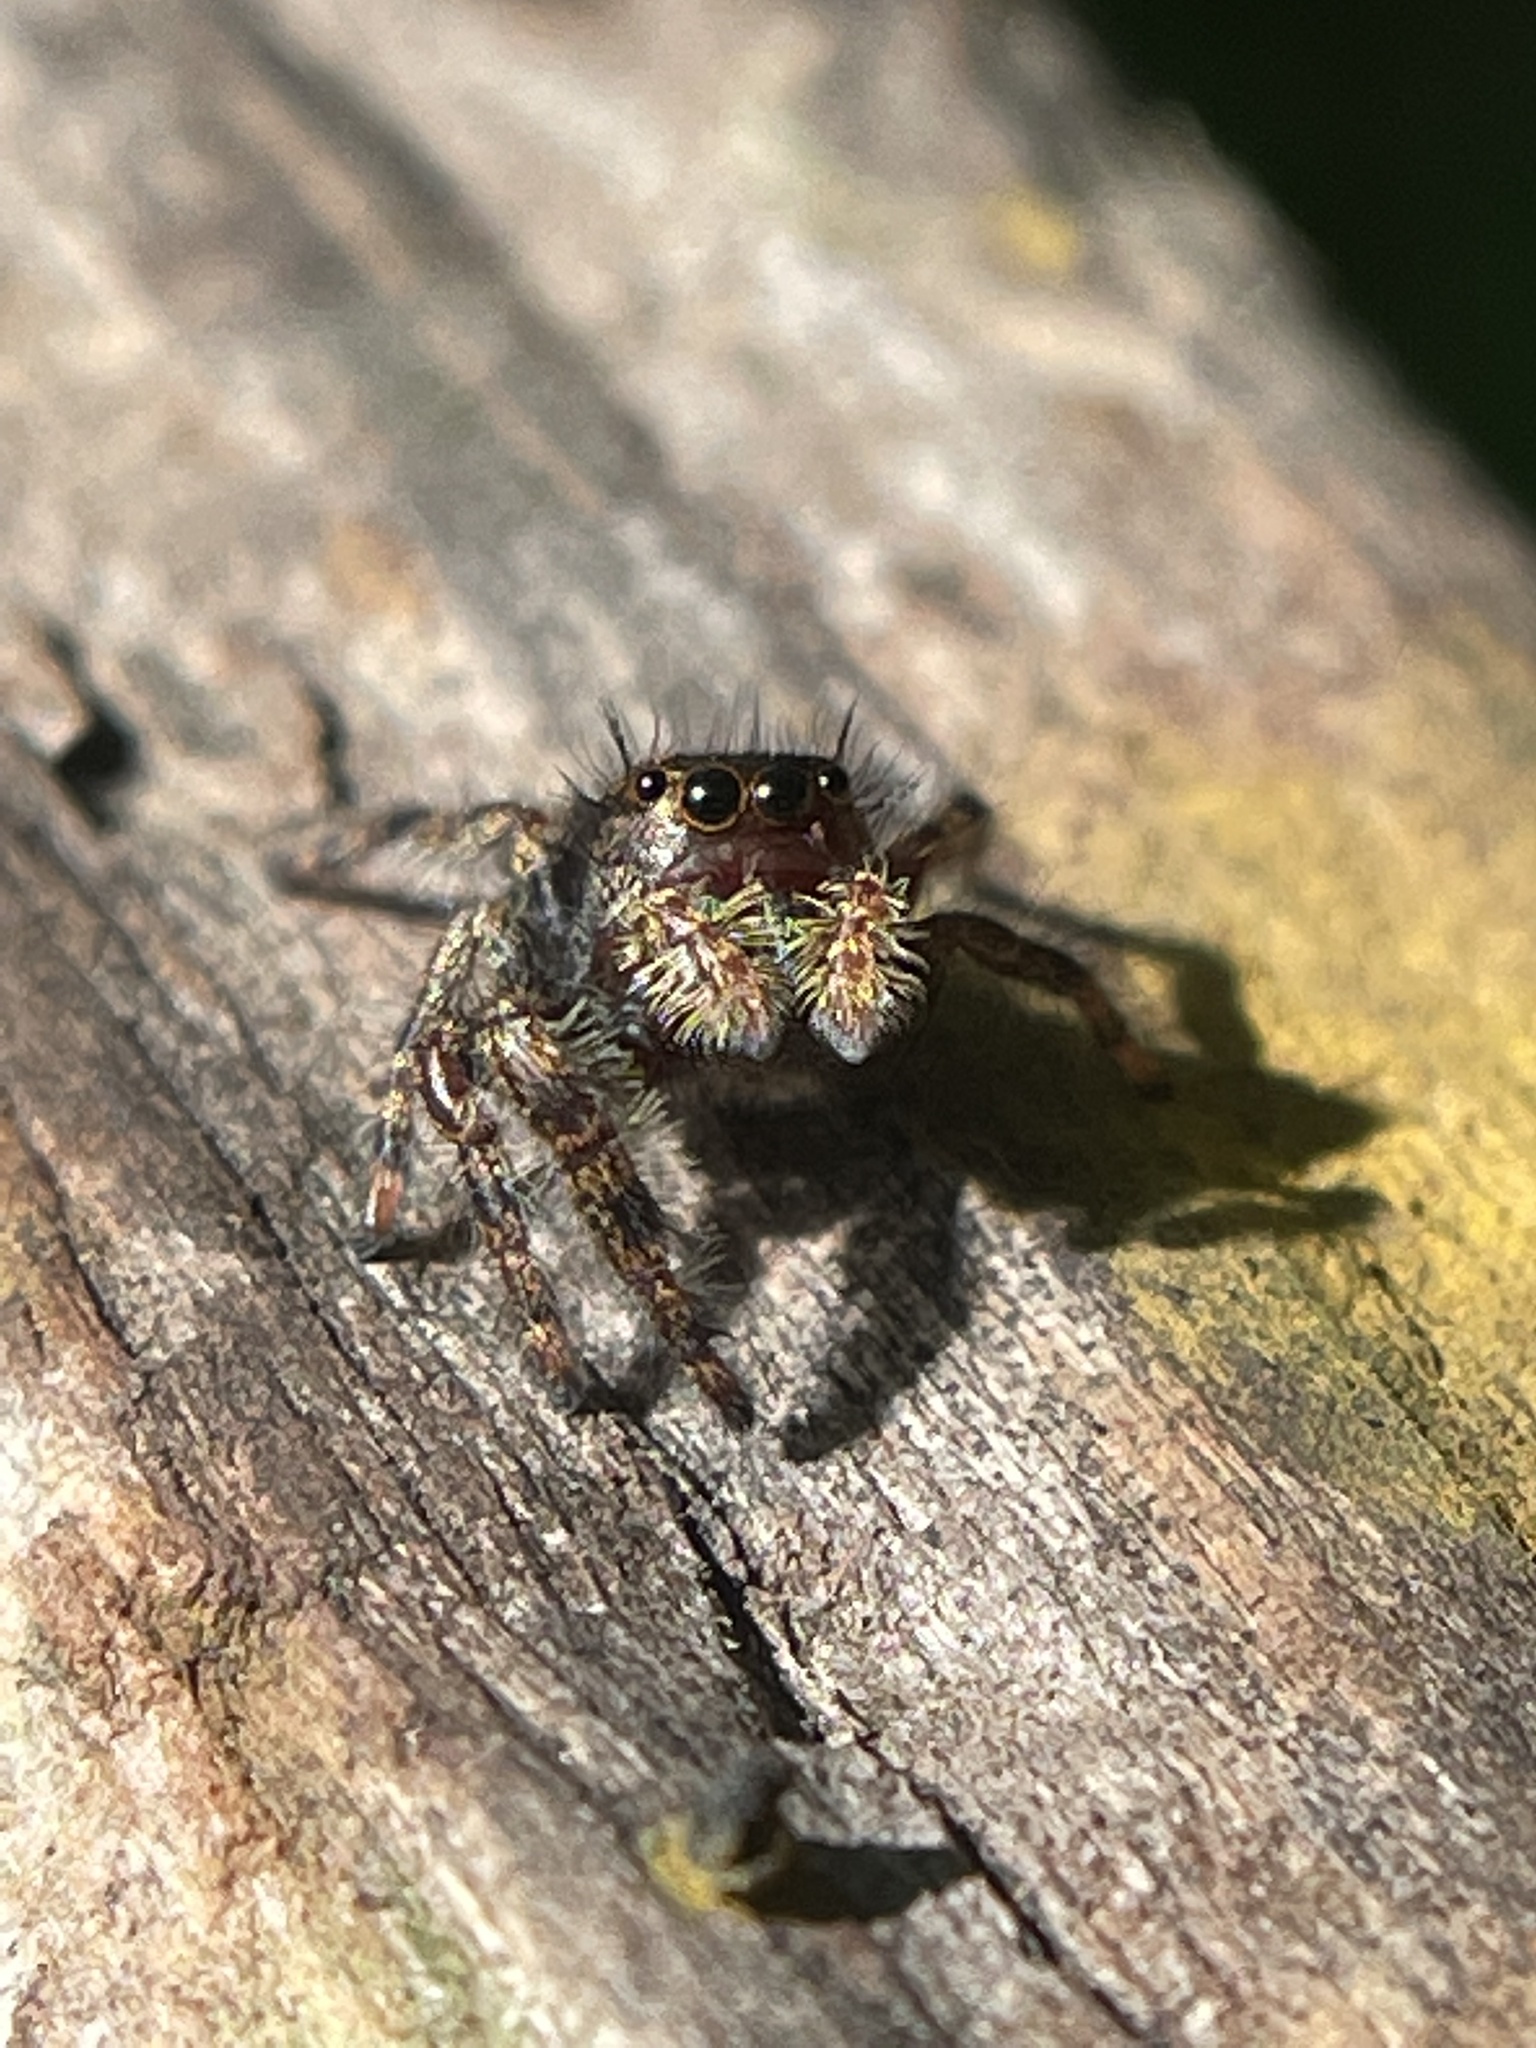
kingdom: Animalia
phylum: Arthropoda
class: Arachnida
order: Araneae
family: Salticidae
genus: Phidippus
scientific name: Phidippus audax
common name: Bold jumper
